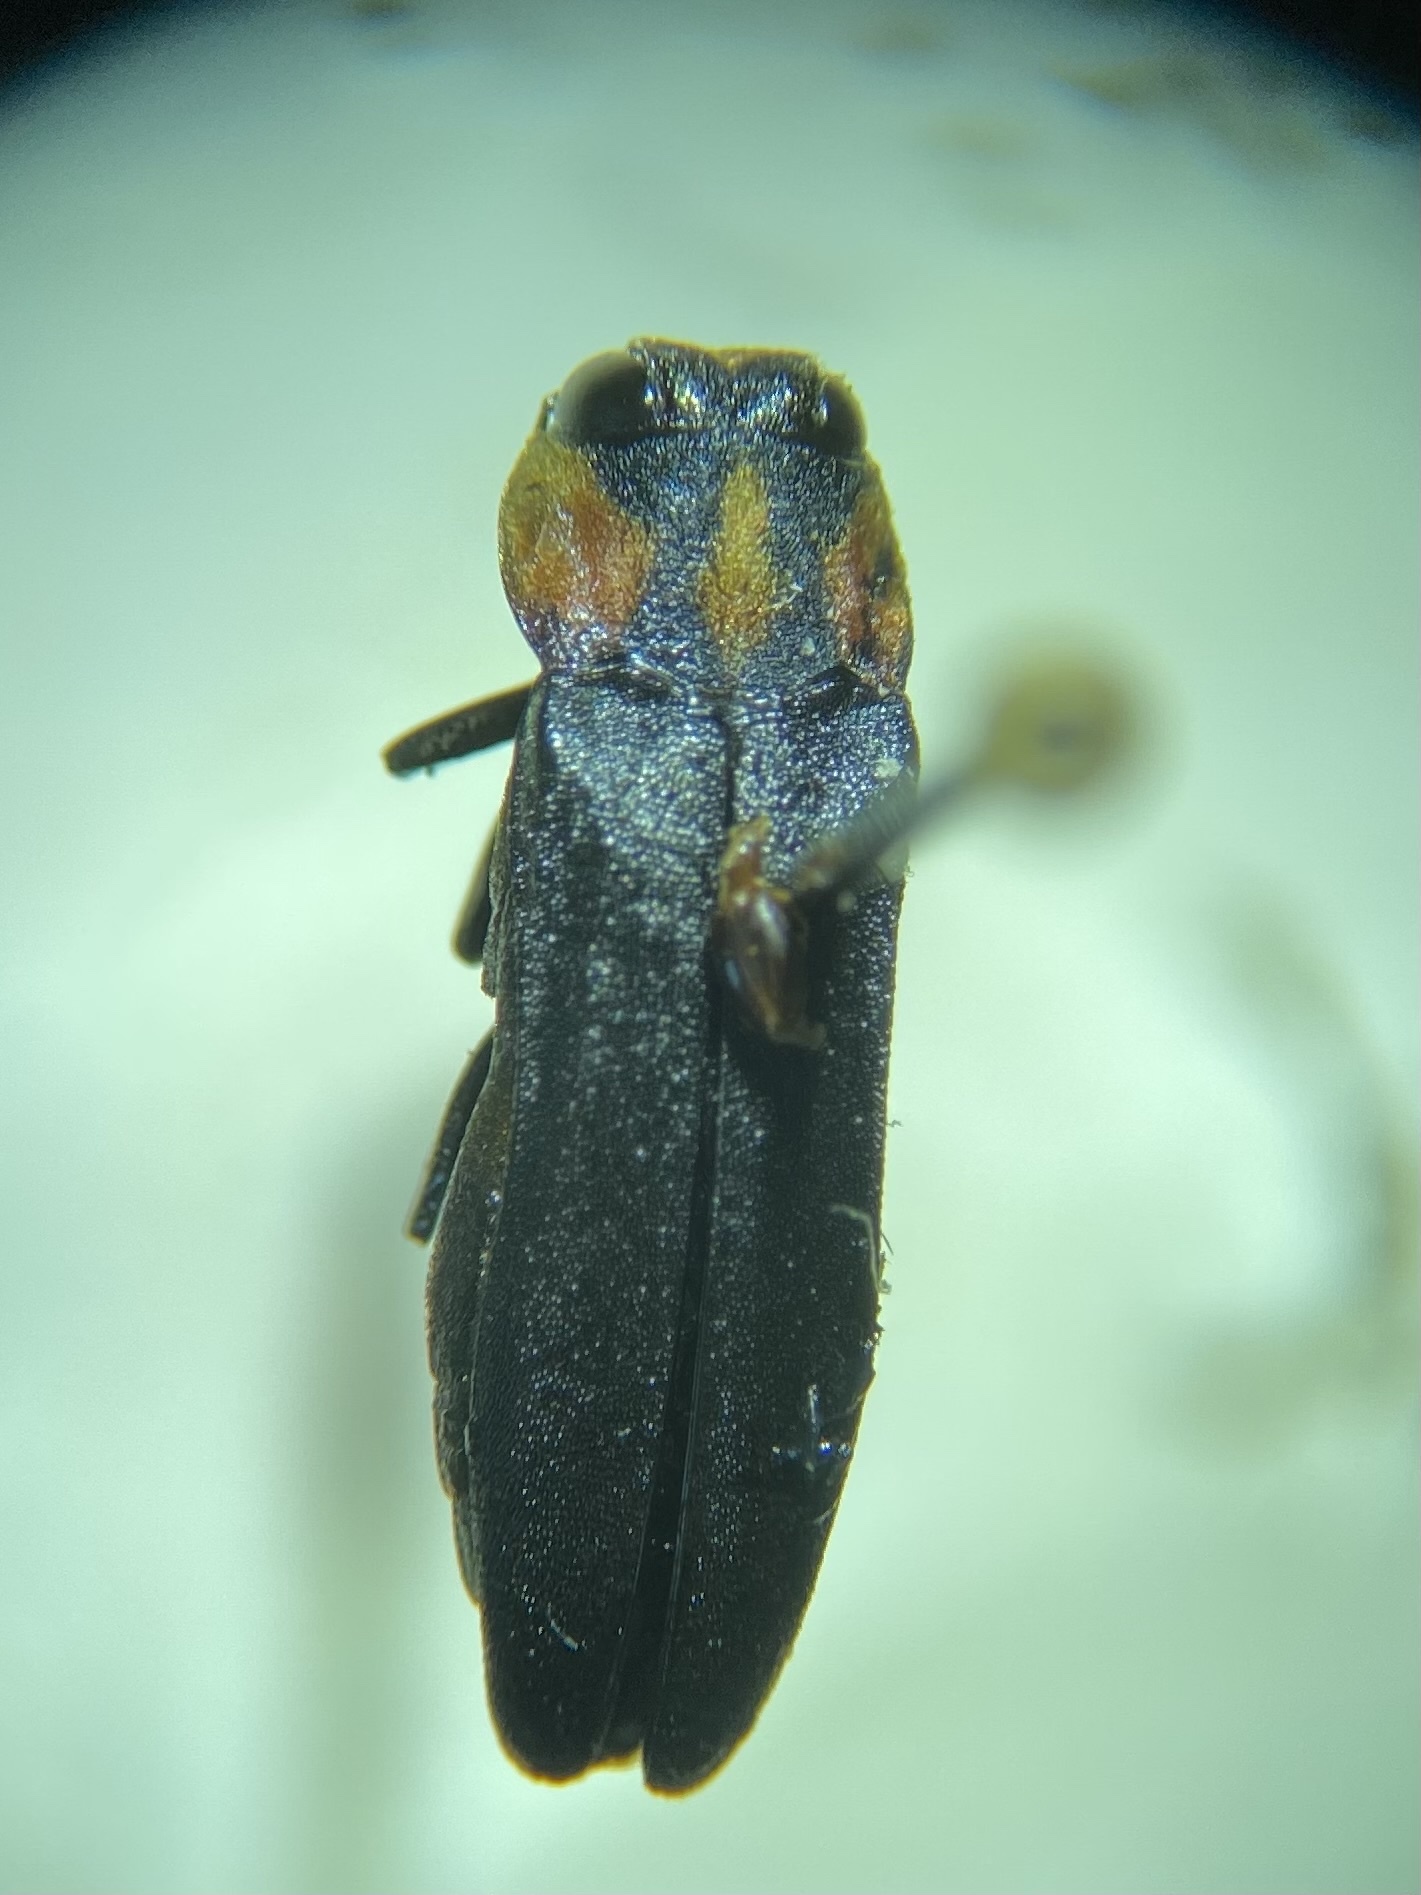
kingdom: Animalia
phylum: Arthropoda
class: Insecta
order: Coleoptera
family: Buprestidae
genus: Agrilus
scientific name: Agrilus benjamini
